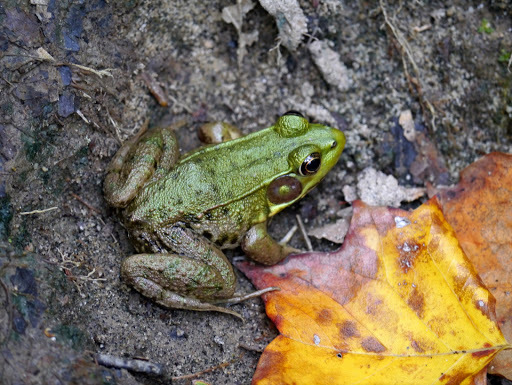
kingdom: Animalia
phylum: Chordata
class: Amphibia
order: Anura
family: Ranidae
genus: Lithobates
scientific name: Lithobates clamitans
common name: Green frog
